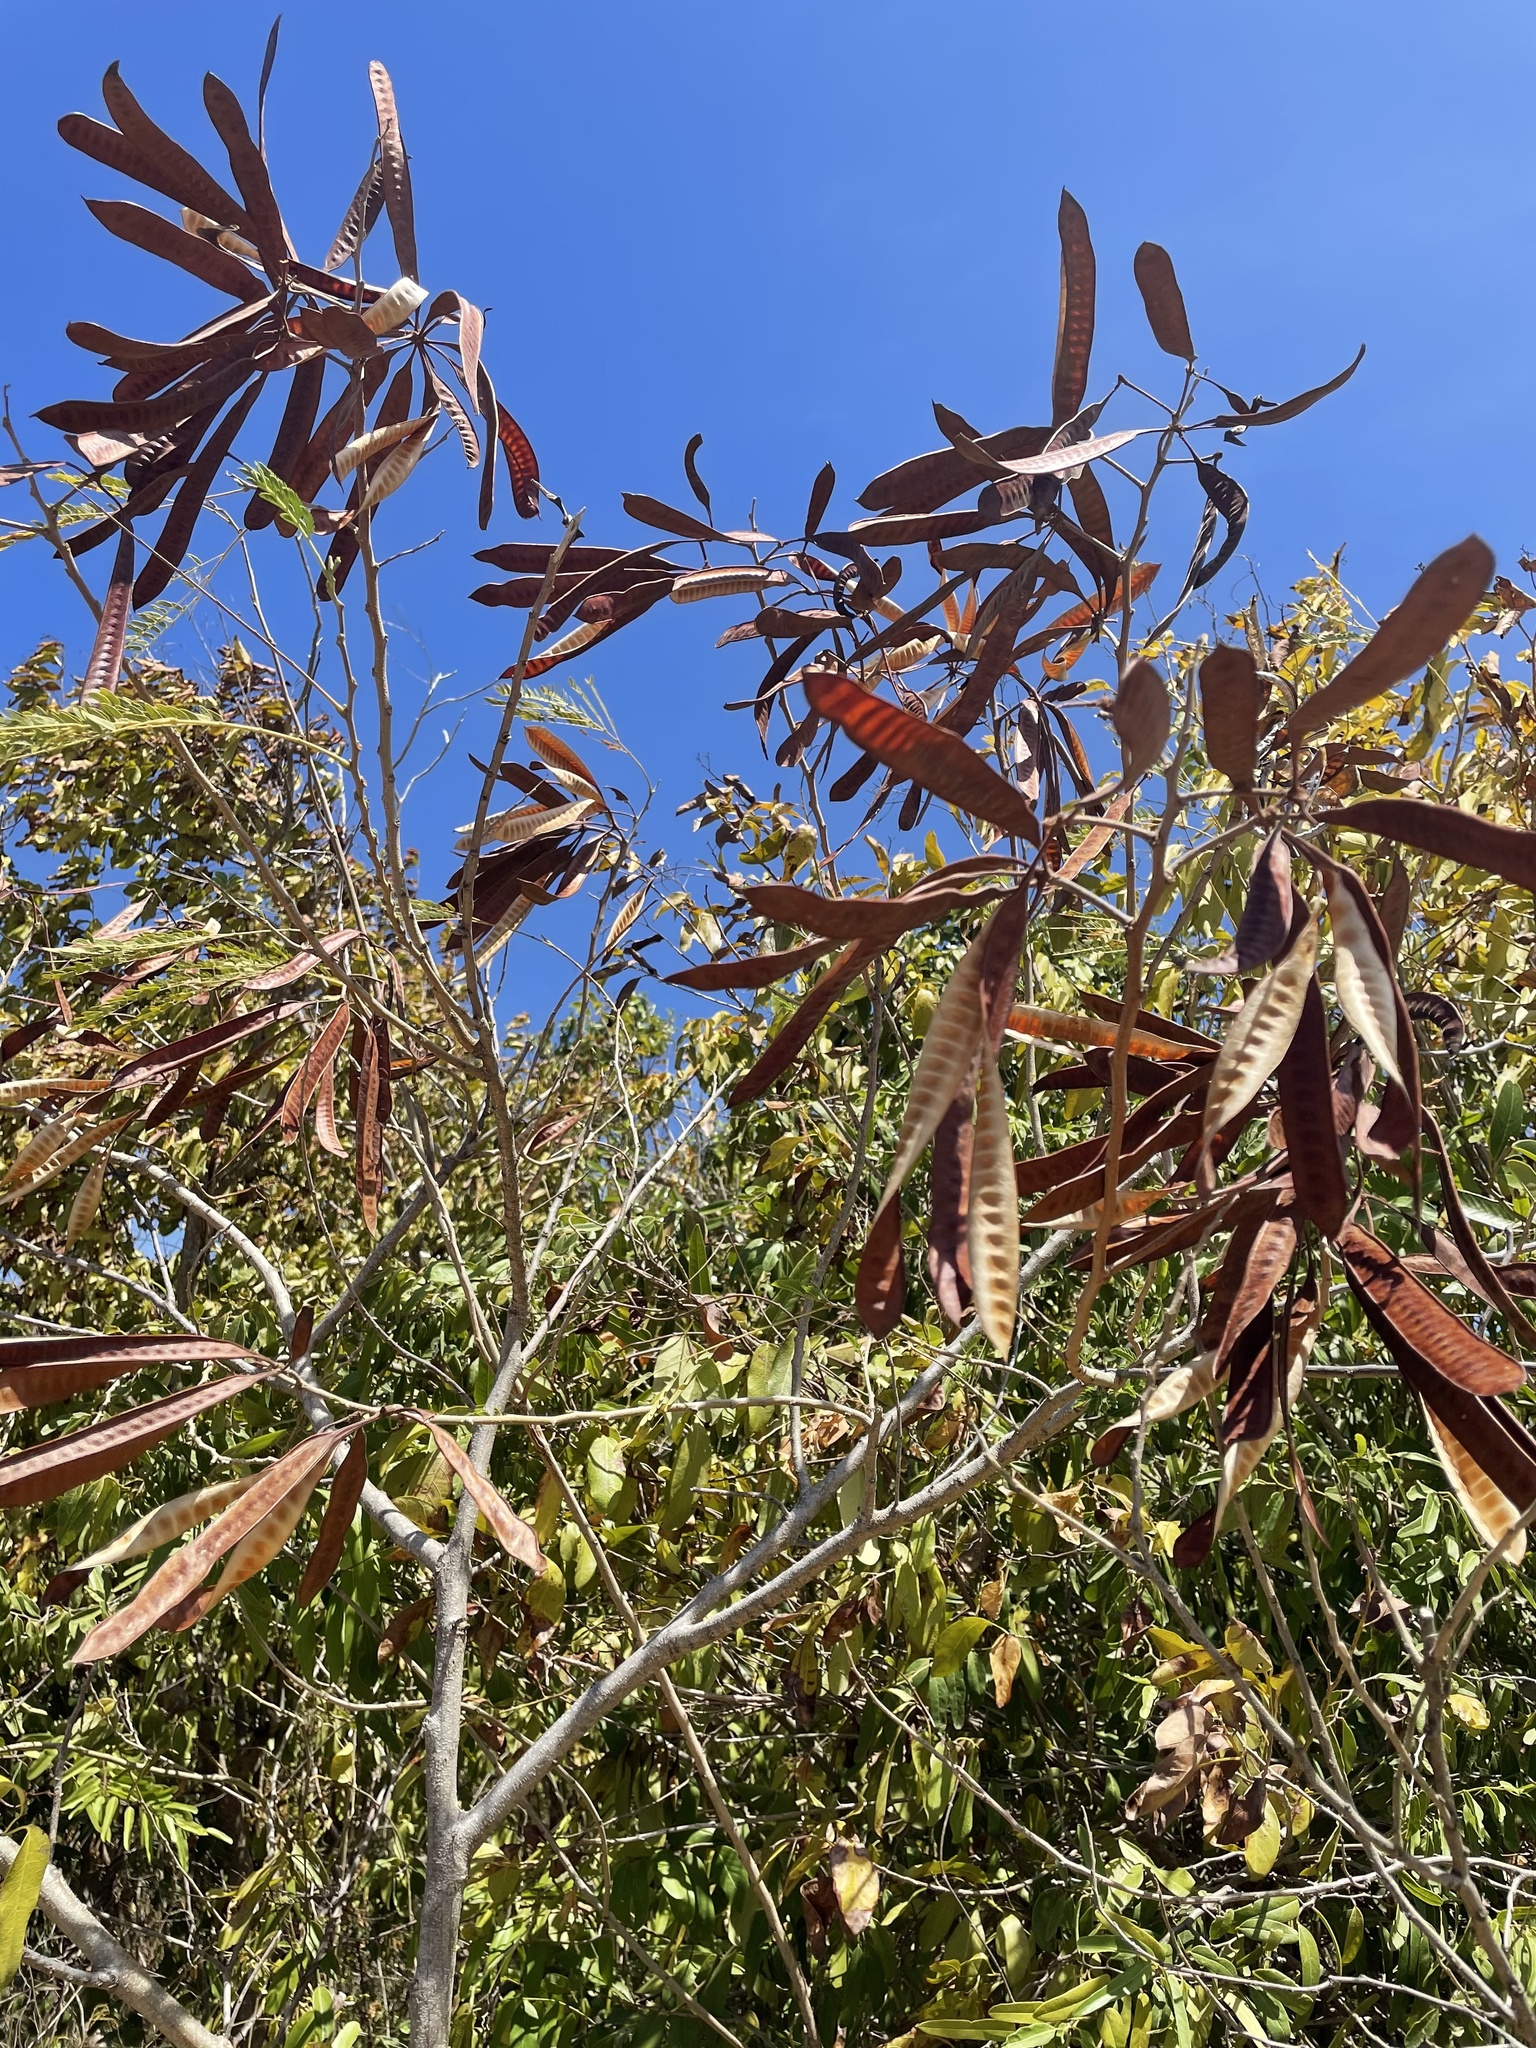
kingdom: Plantae
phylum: Tracheophyta
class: Magnoliopsida
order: Fabales
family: Fabaceae
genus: Leucaena
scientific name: Leucaena leucocephala
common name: White leadtree
